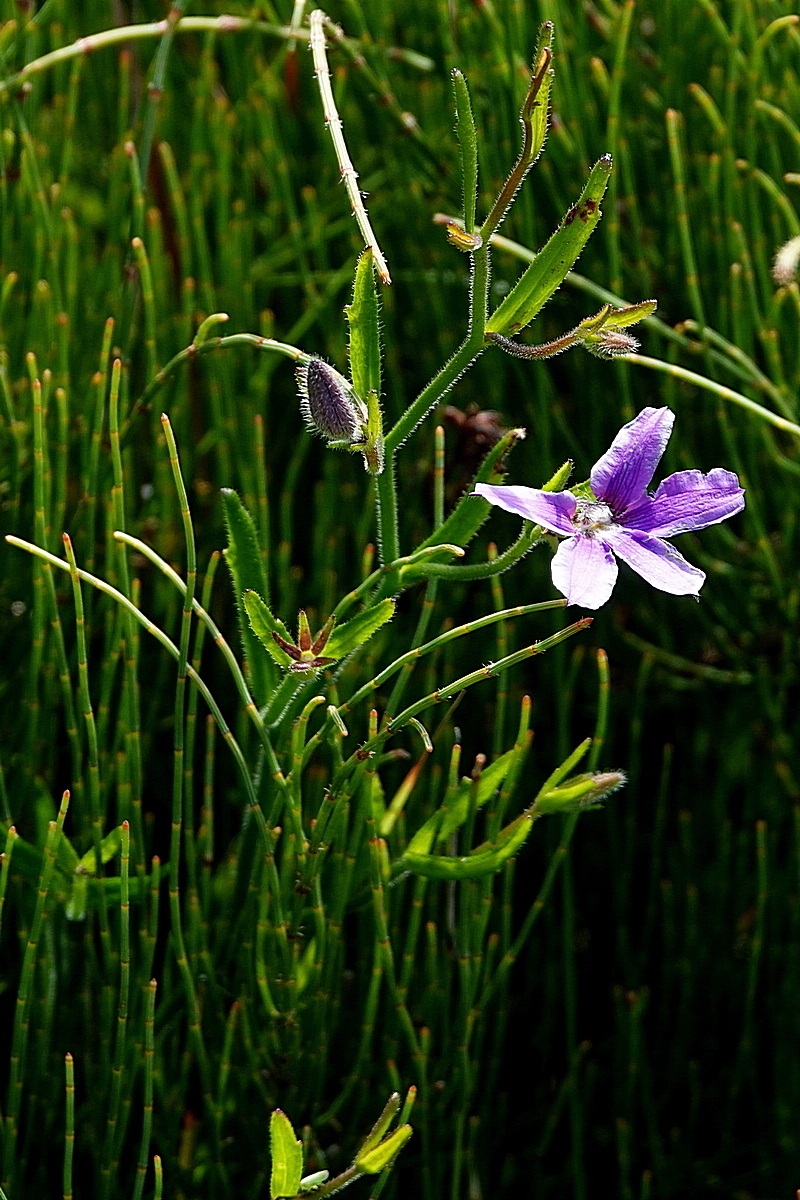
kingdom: Plantae
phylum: Tracheophyta
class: Magnoliopsida
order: Asterales
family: Goodeniaceae
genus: Scaevola
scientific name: Scaevola ramosissima
